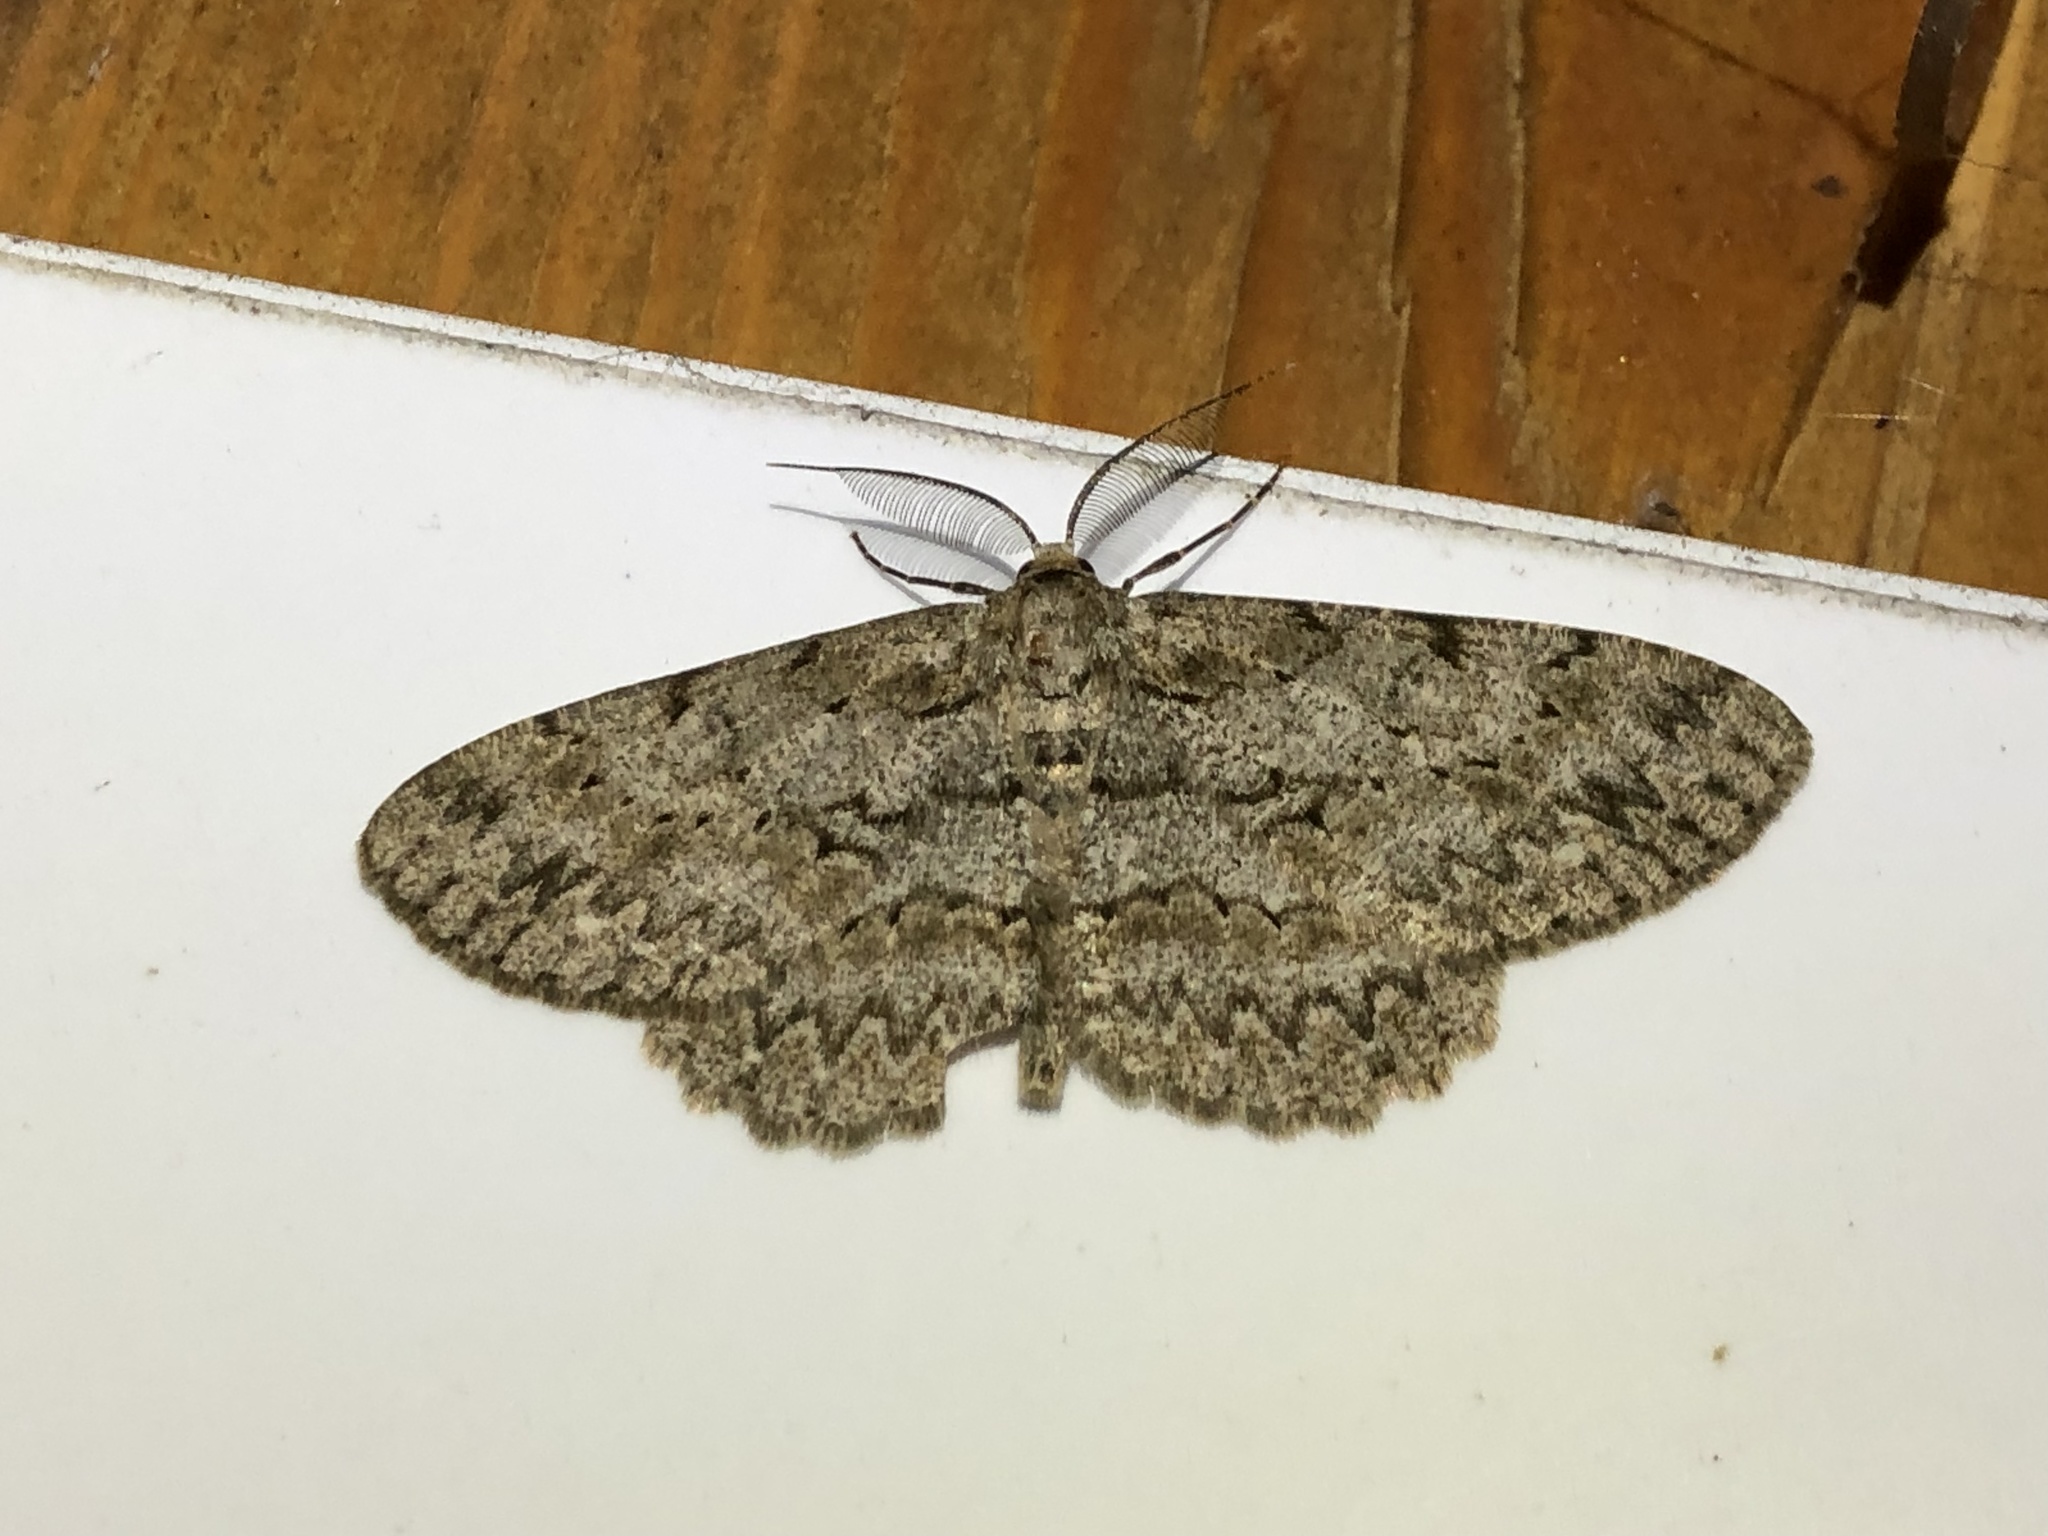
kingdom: Animalia
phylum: Arthropoda
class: Insecta
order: Lepidoptera
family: Geometridae
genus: Hypomecis
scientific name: Hypomecis punctinalis
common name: Pale oak beauty
